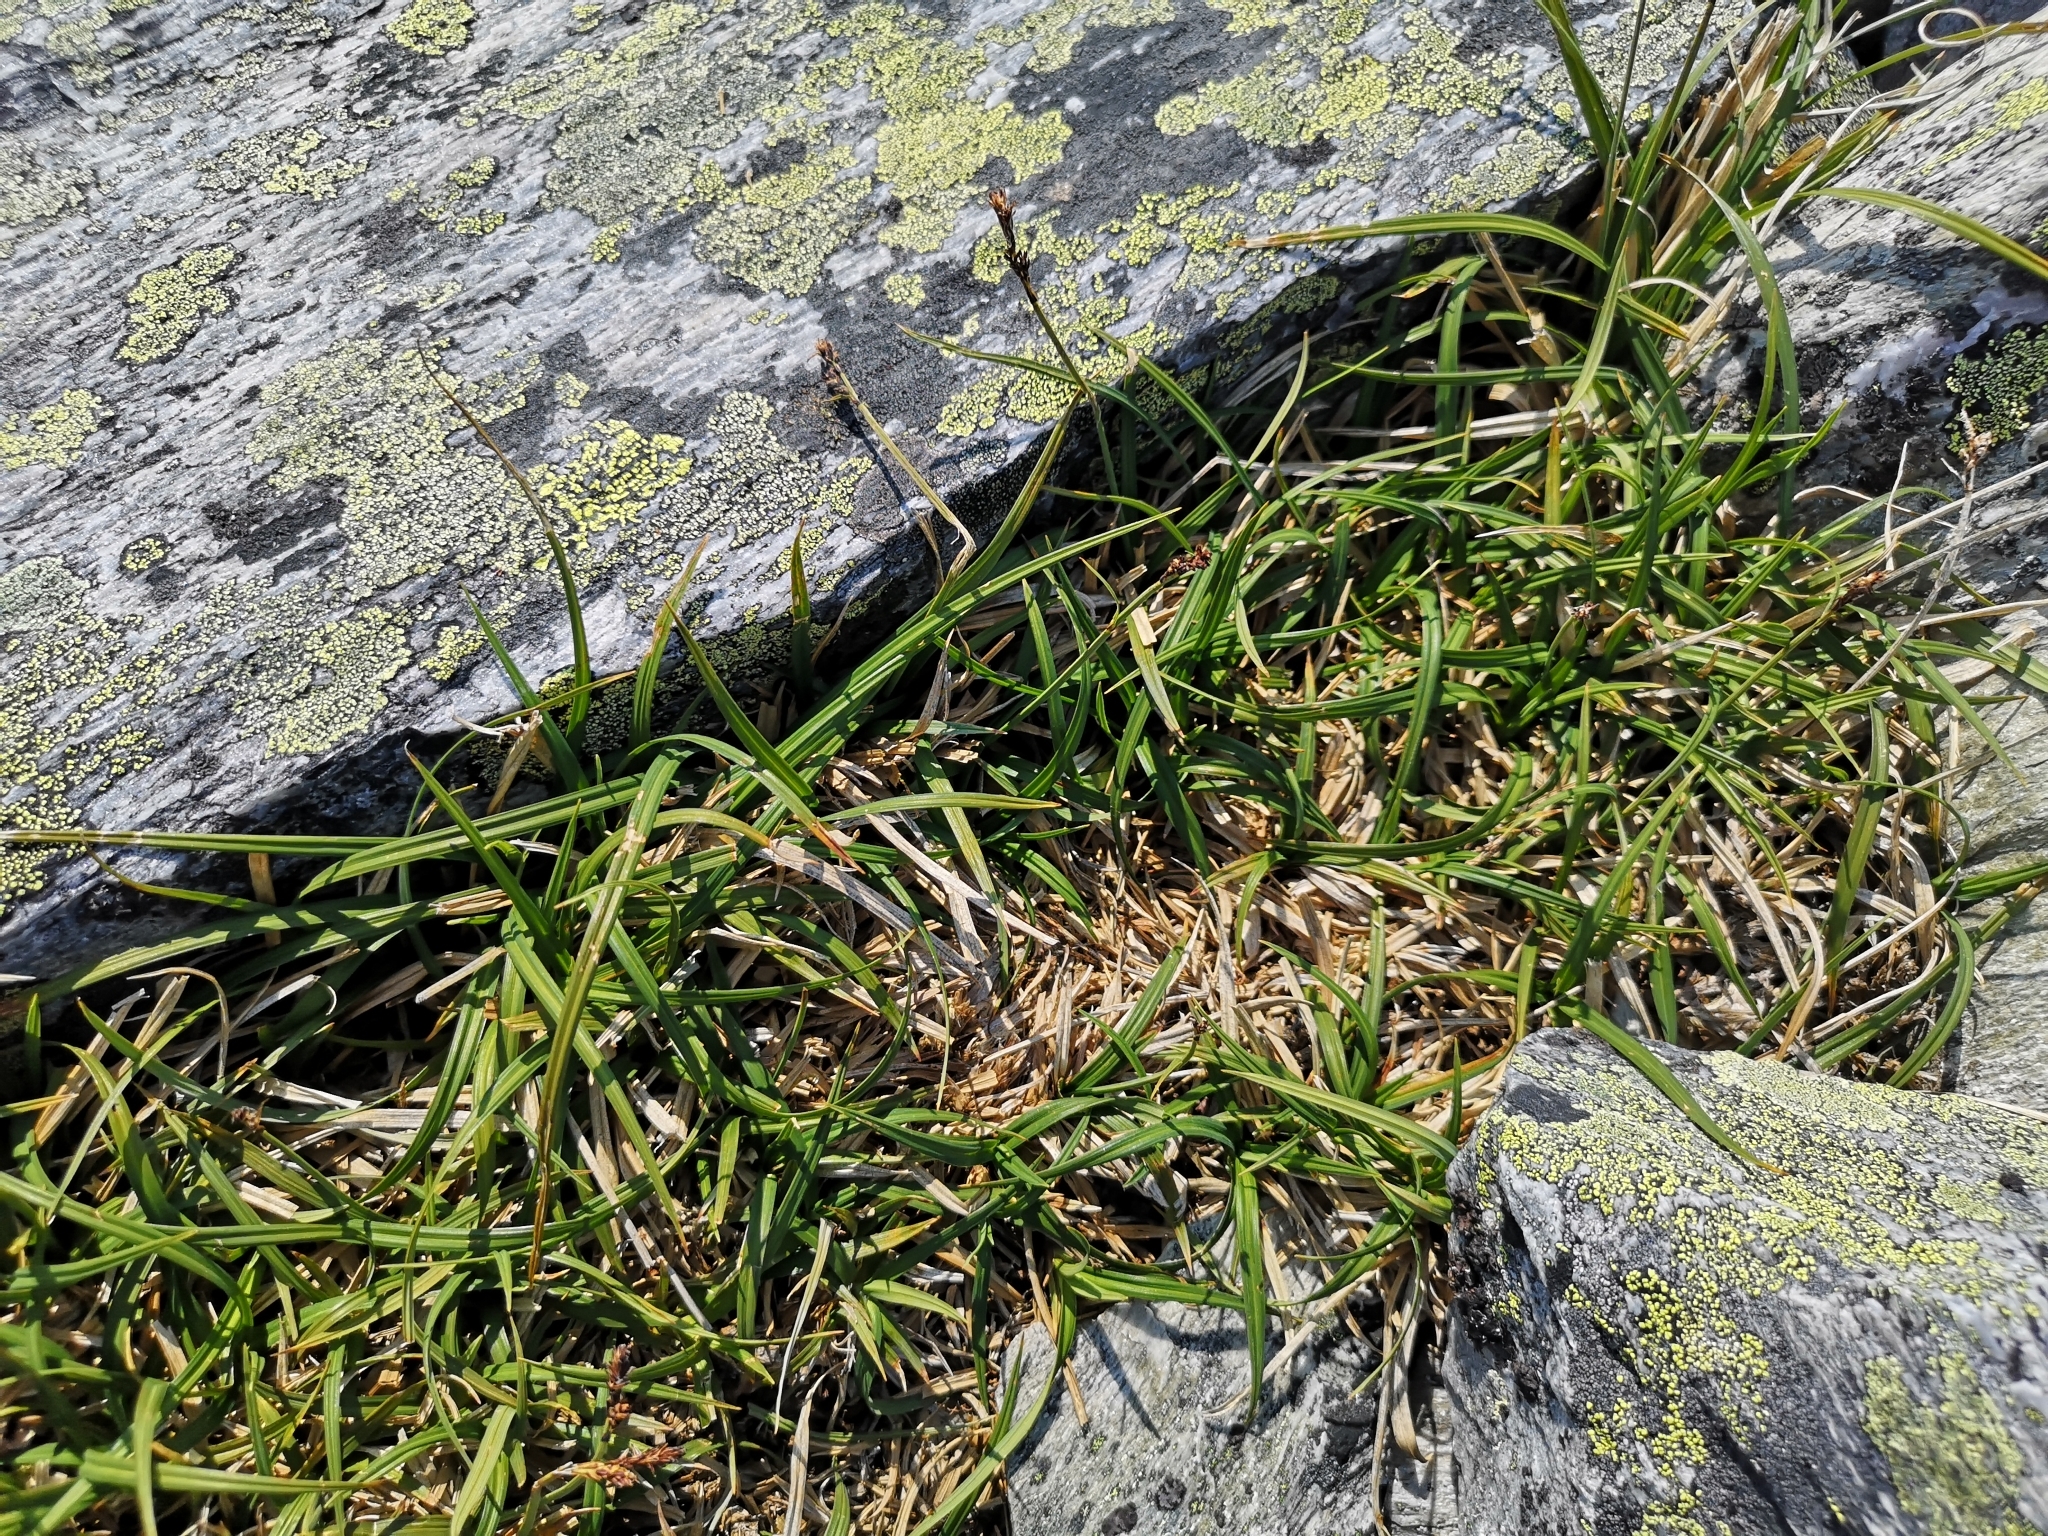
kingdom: Plantae
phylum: Tracheophyta
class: Liliopsida
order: Poales
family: Cyperaceae
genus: Carex
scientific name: Carex bigelowii
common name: Stiff sedge
